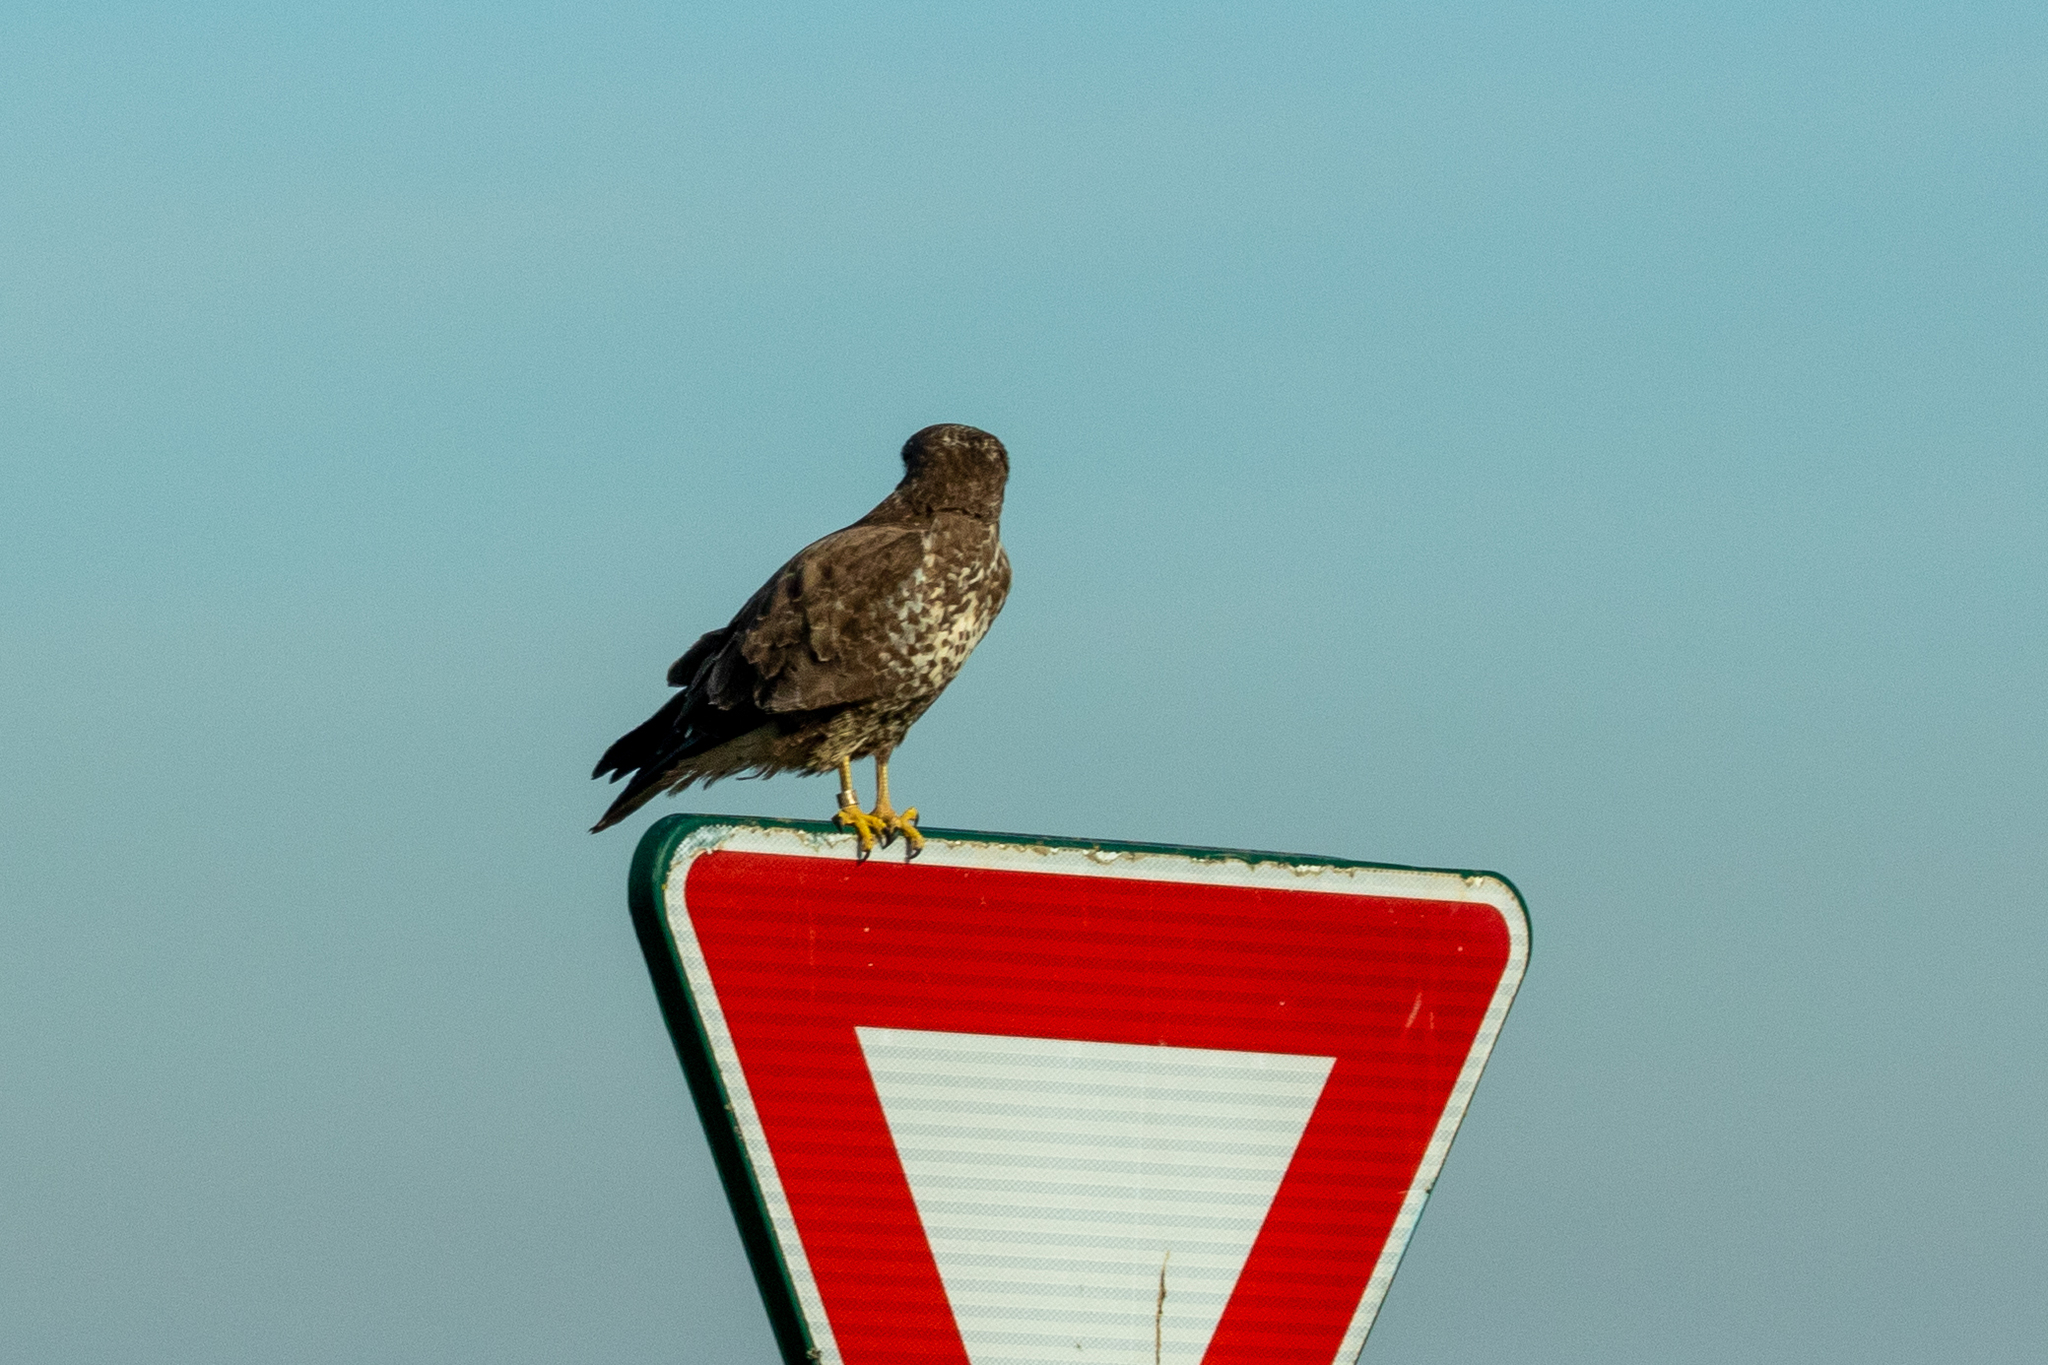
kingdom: Animalia
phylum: Chordata
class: Aves
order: Accipitriformes
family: Accipitridae
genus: Buteo
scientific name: Buteo buteo
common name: Common buzzard
